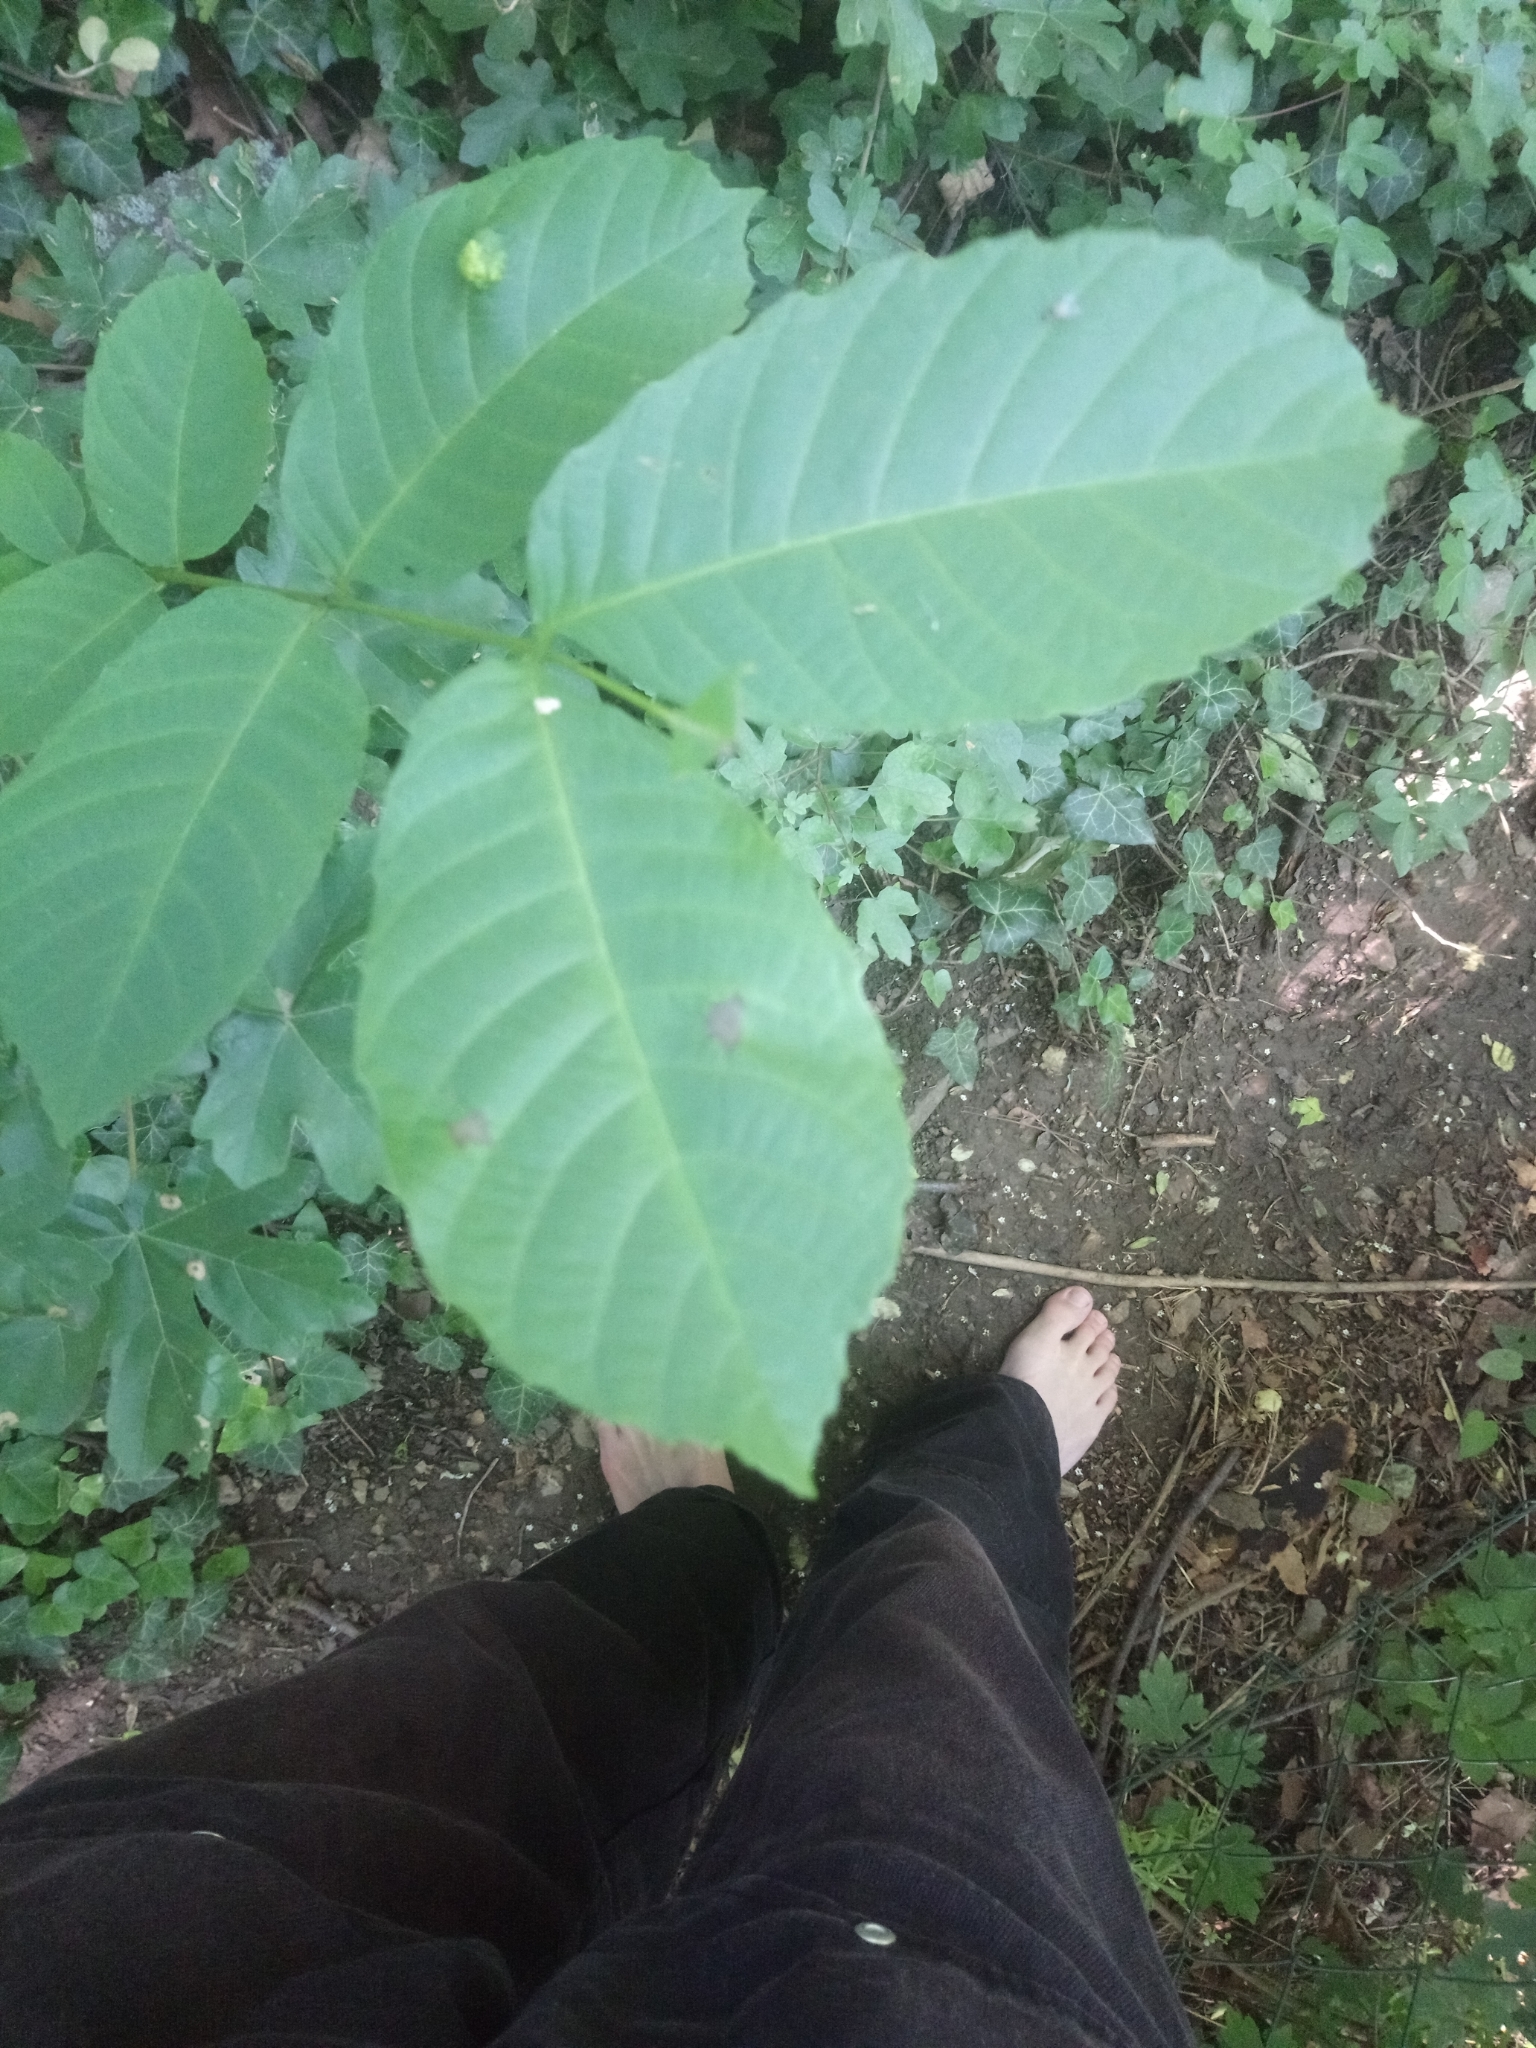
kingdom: Plantae
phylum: Tracheophyta
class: Magnoliopsida
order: Fagales
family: Juglandaceae
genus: Juglans
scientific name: Juglans regia
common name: Walnut
